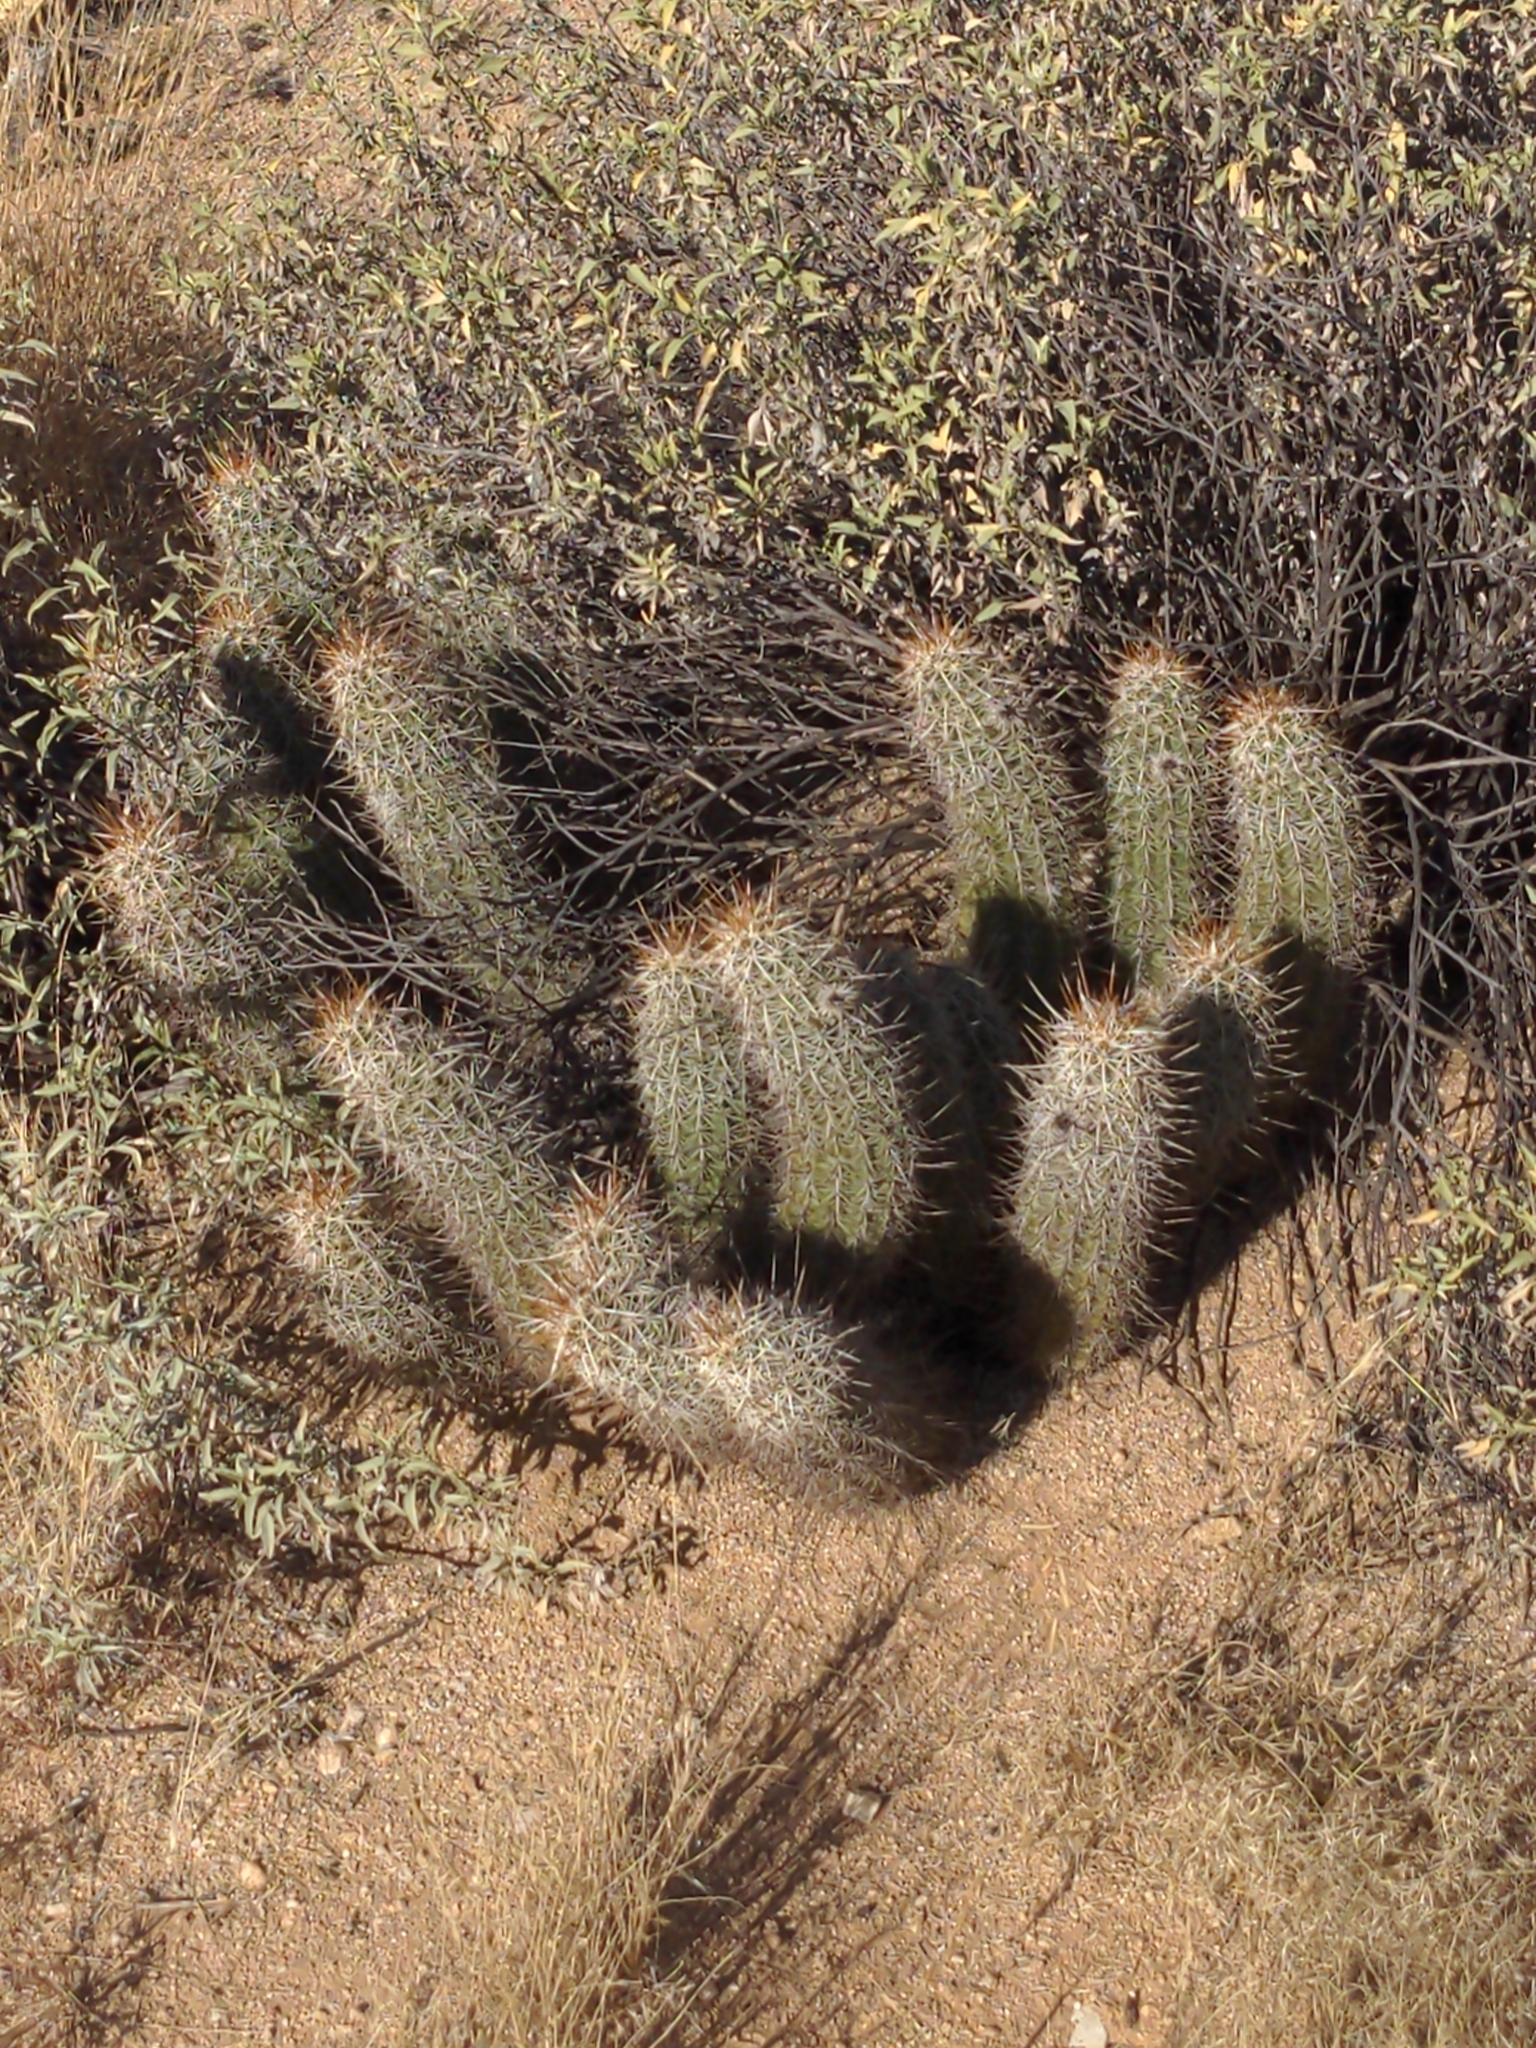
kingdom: Plantae
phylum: Tracheophyta
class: Magnoliopsida
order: Caryophyllales
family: Cactaceae
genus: Echinocereus
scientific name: Echinocereus engelmannii
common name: Engelmann's hedgehog cactus
